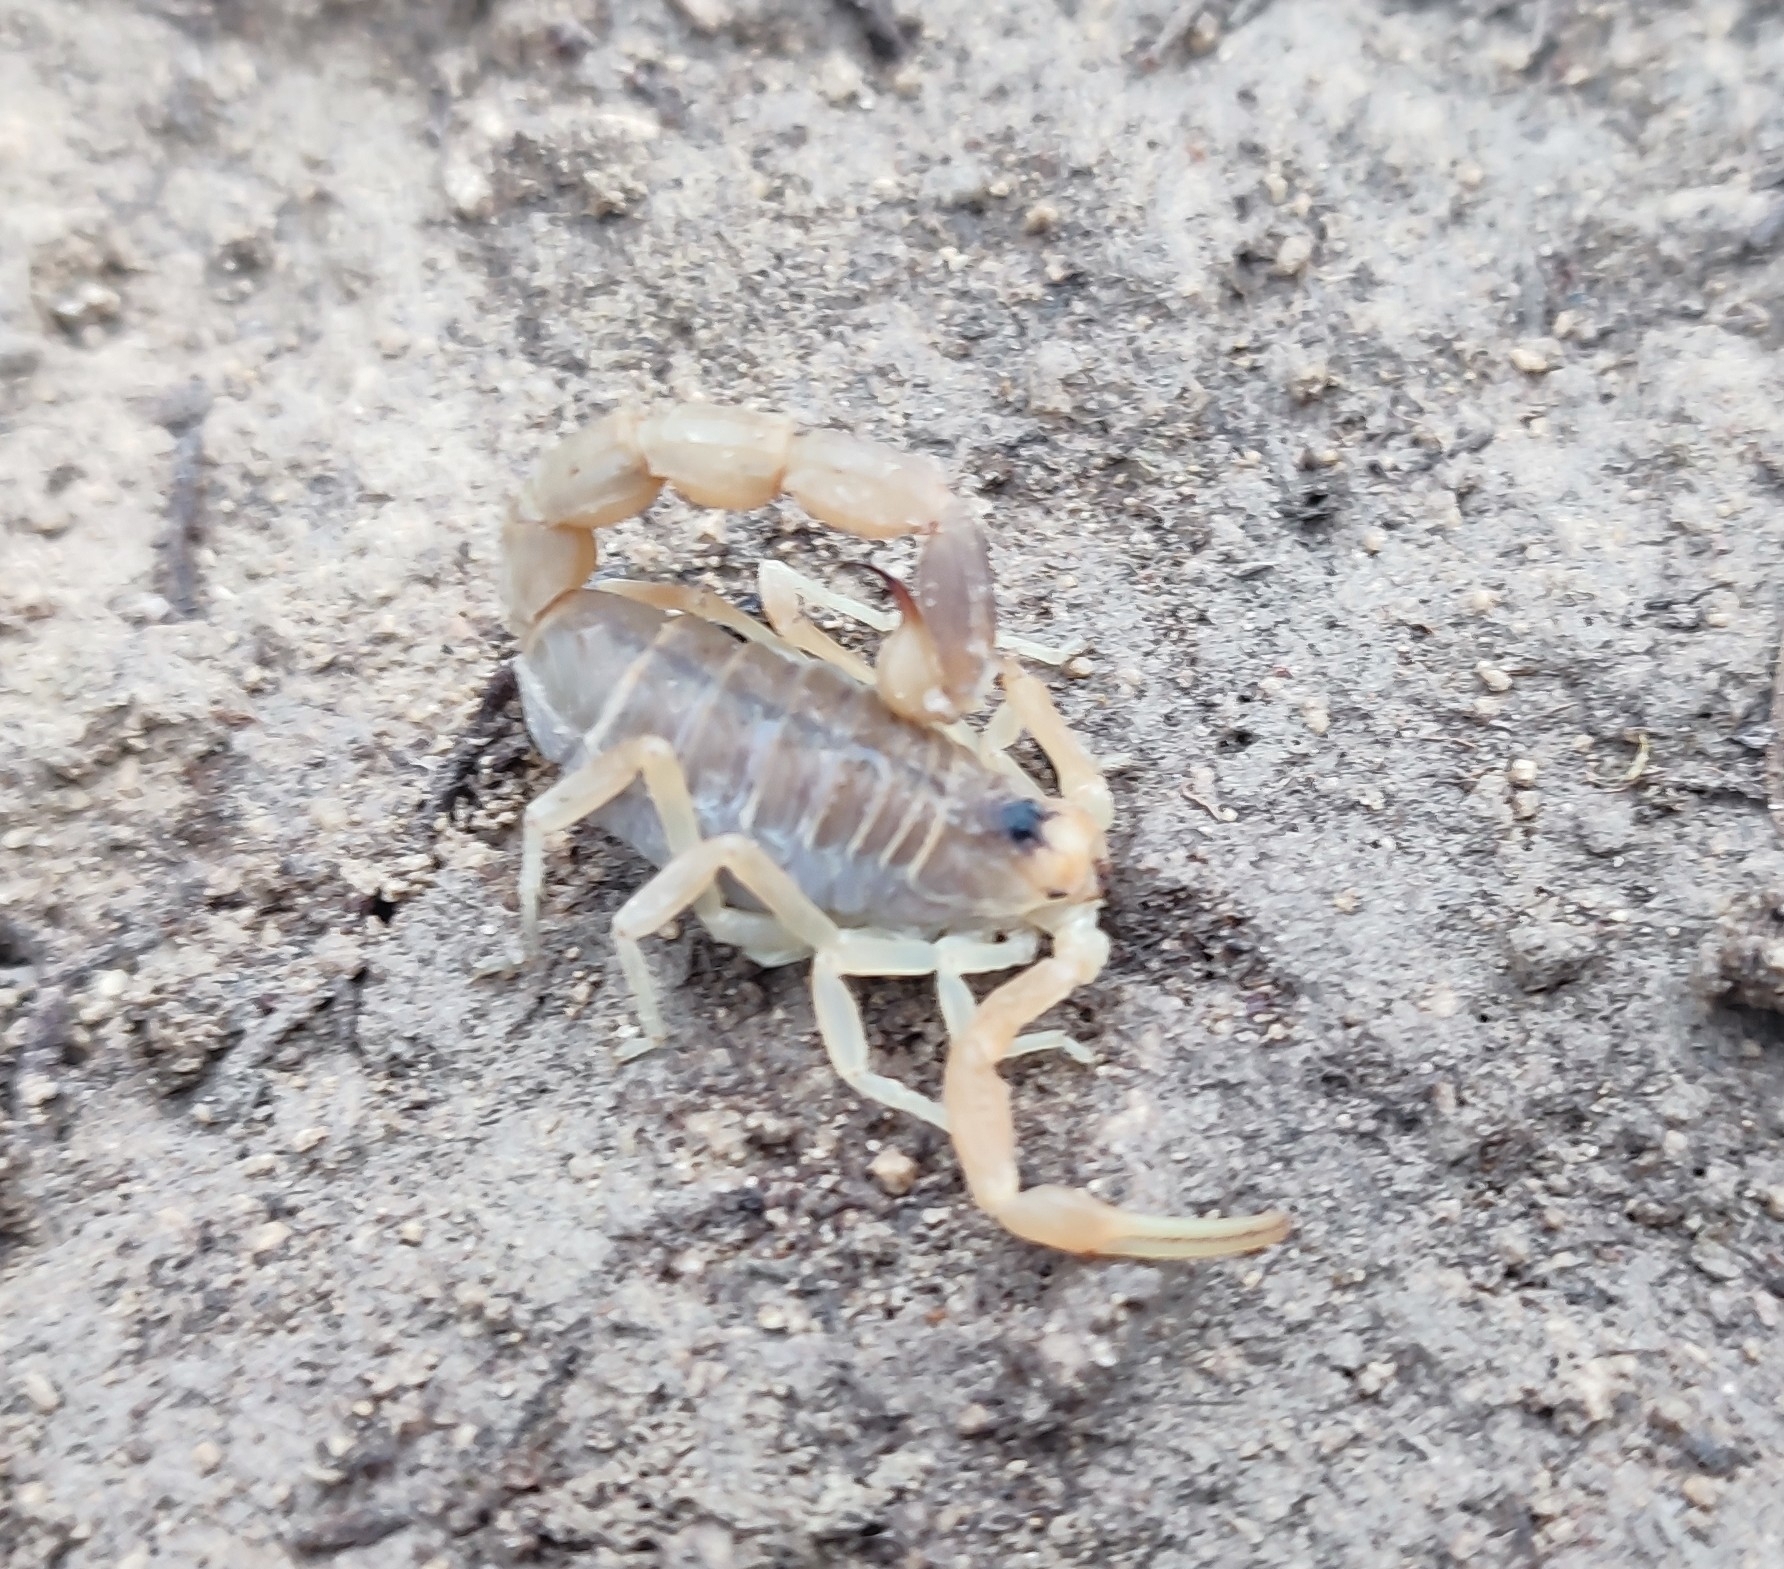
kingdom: Animalia
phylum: Arthropoda
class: Arachnida
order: Scorpiones
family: Buthidae
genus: Buthus
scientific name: Buthus occitanus
